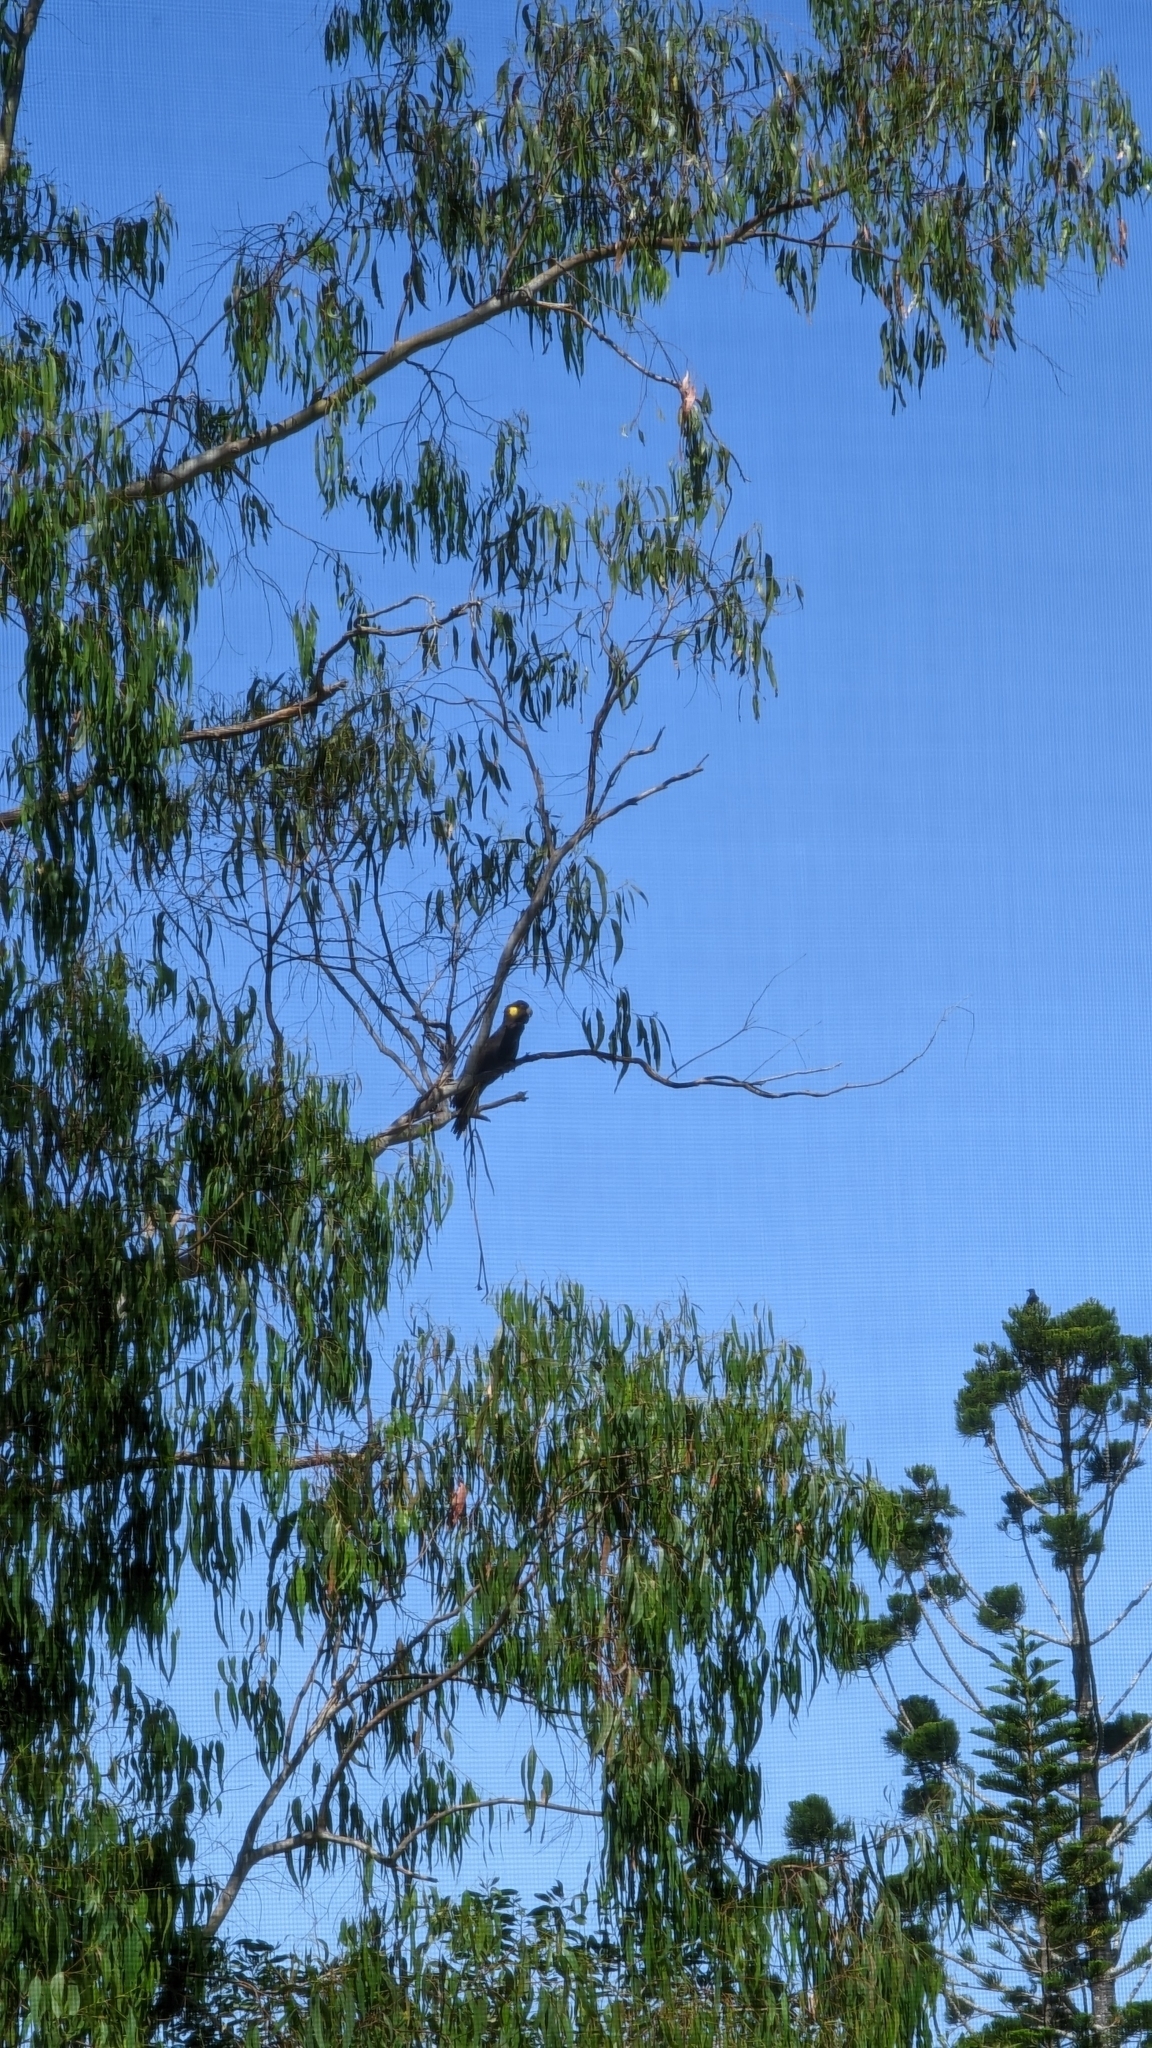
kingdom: Animalia
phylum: Chordata
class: Aves
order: Psittaciformes
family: Cacatuidae
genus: Zanda
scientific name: Zanda funerea
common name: Yellow-tailed black-cockatoo
